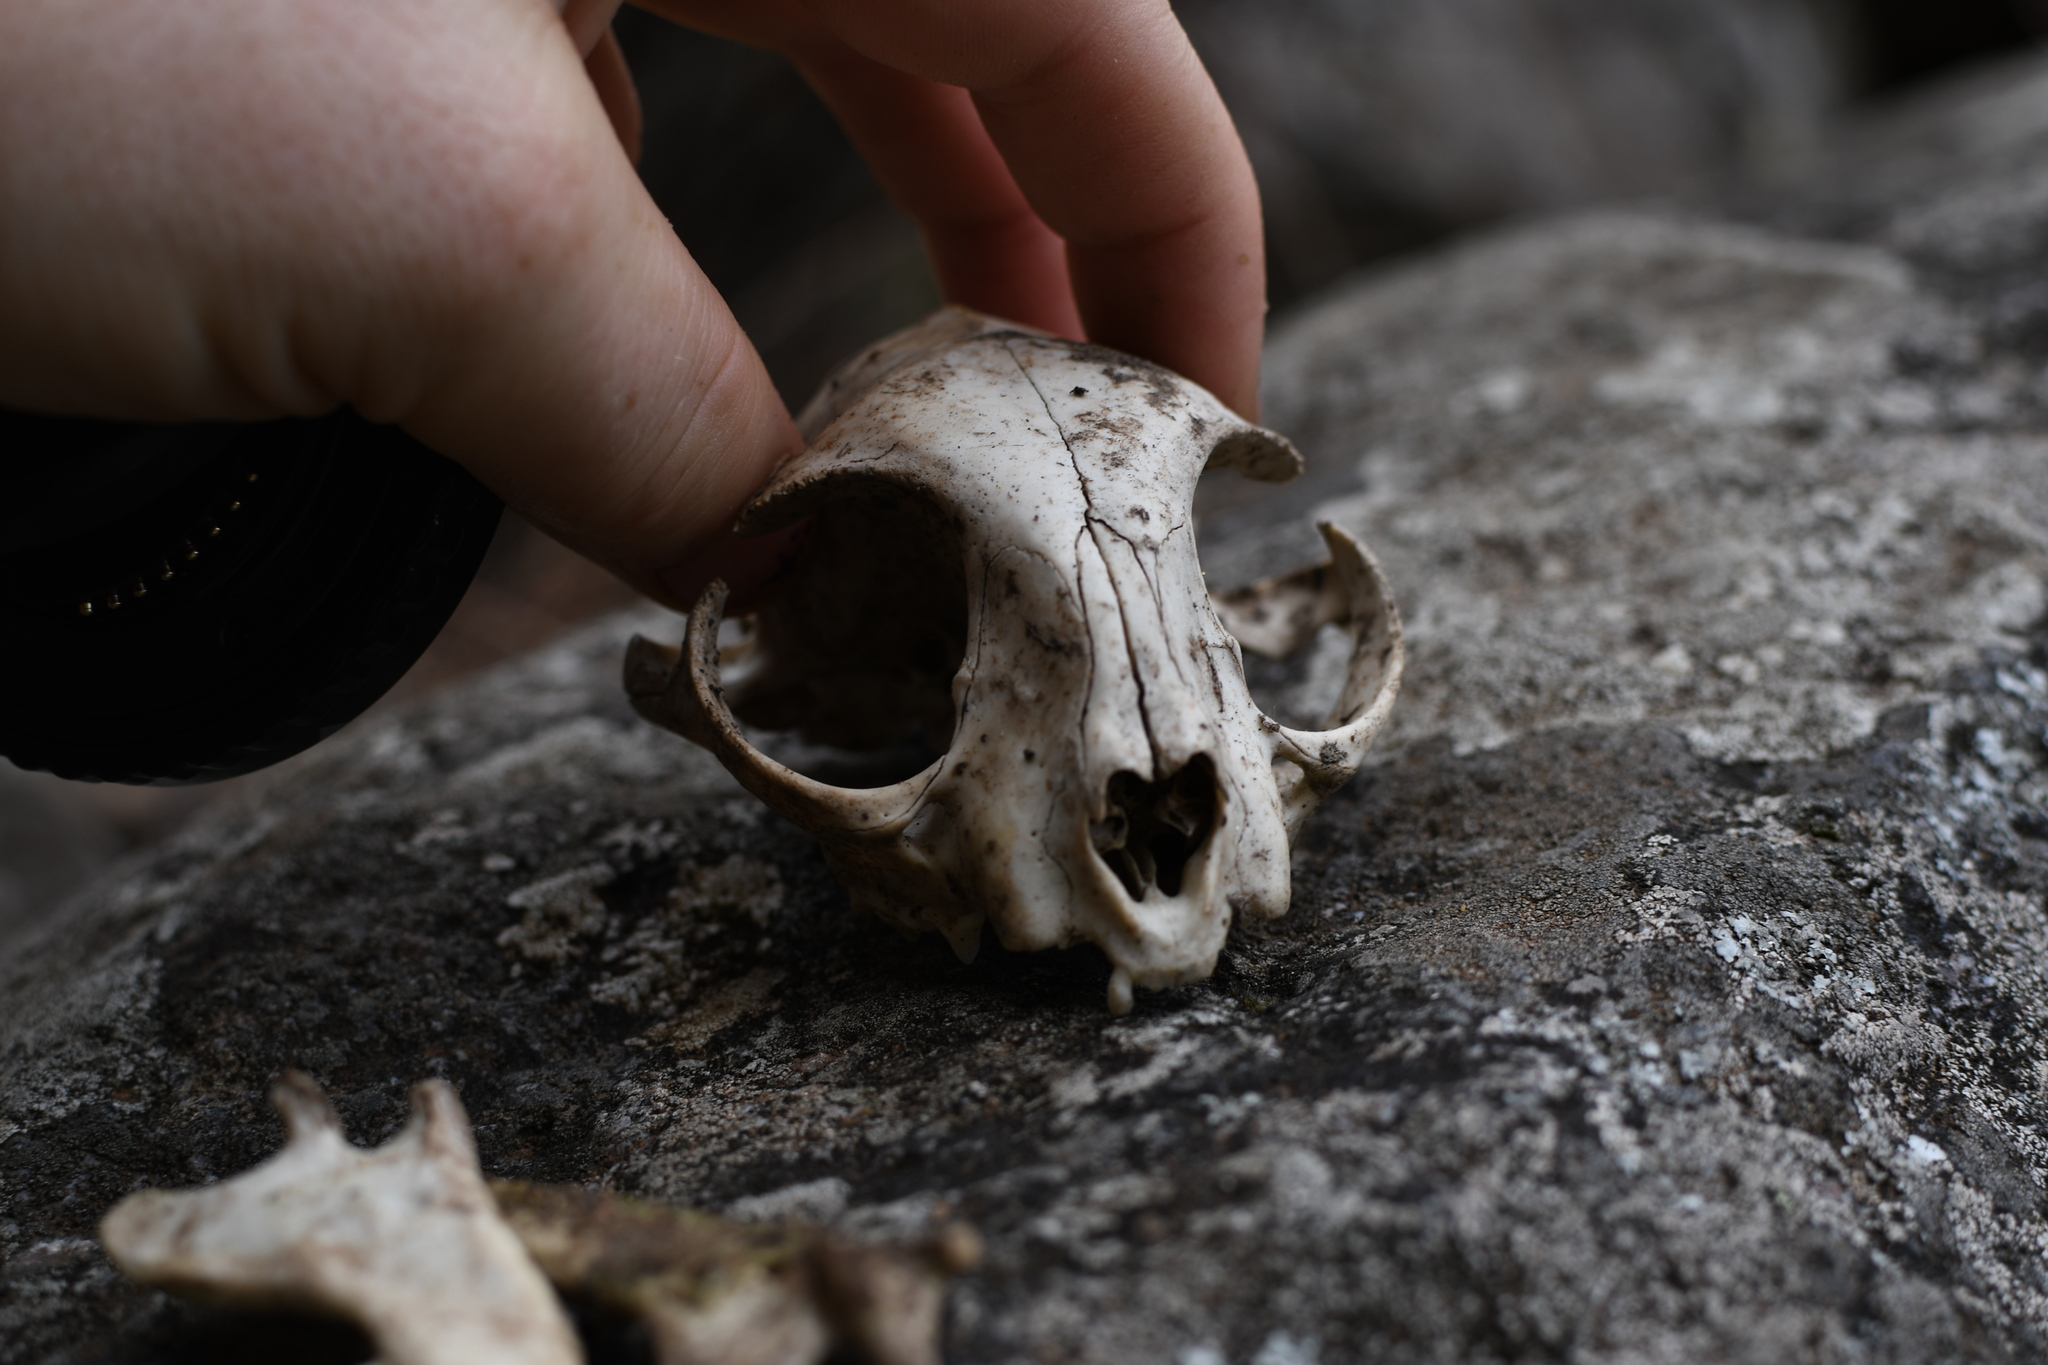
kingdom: Animalia
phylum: Chordata
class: Mammalia
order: Carnivora
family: Felidae
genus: Felis
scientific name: Felis catus
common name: Domestic cat
